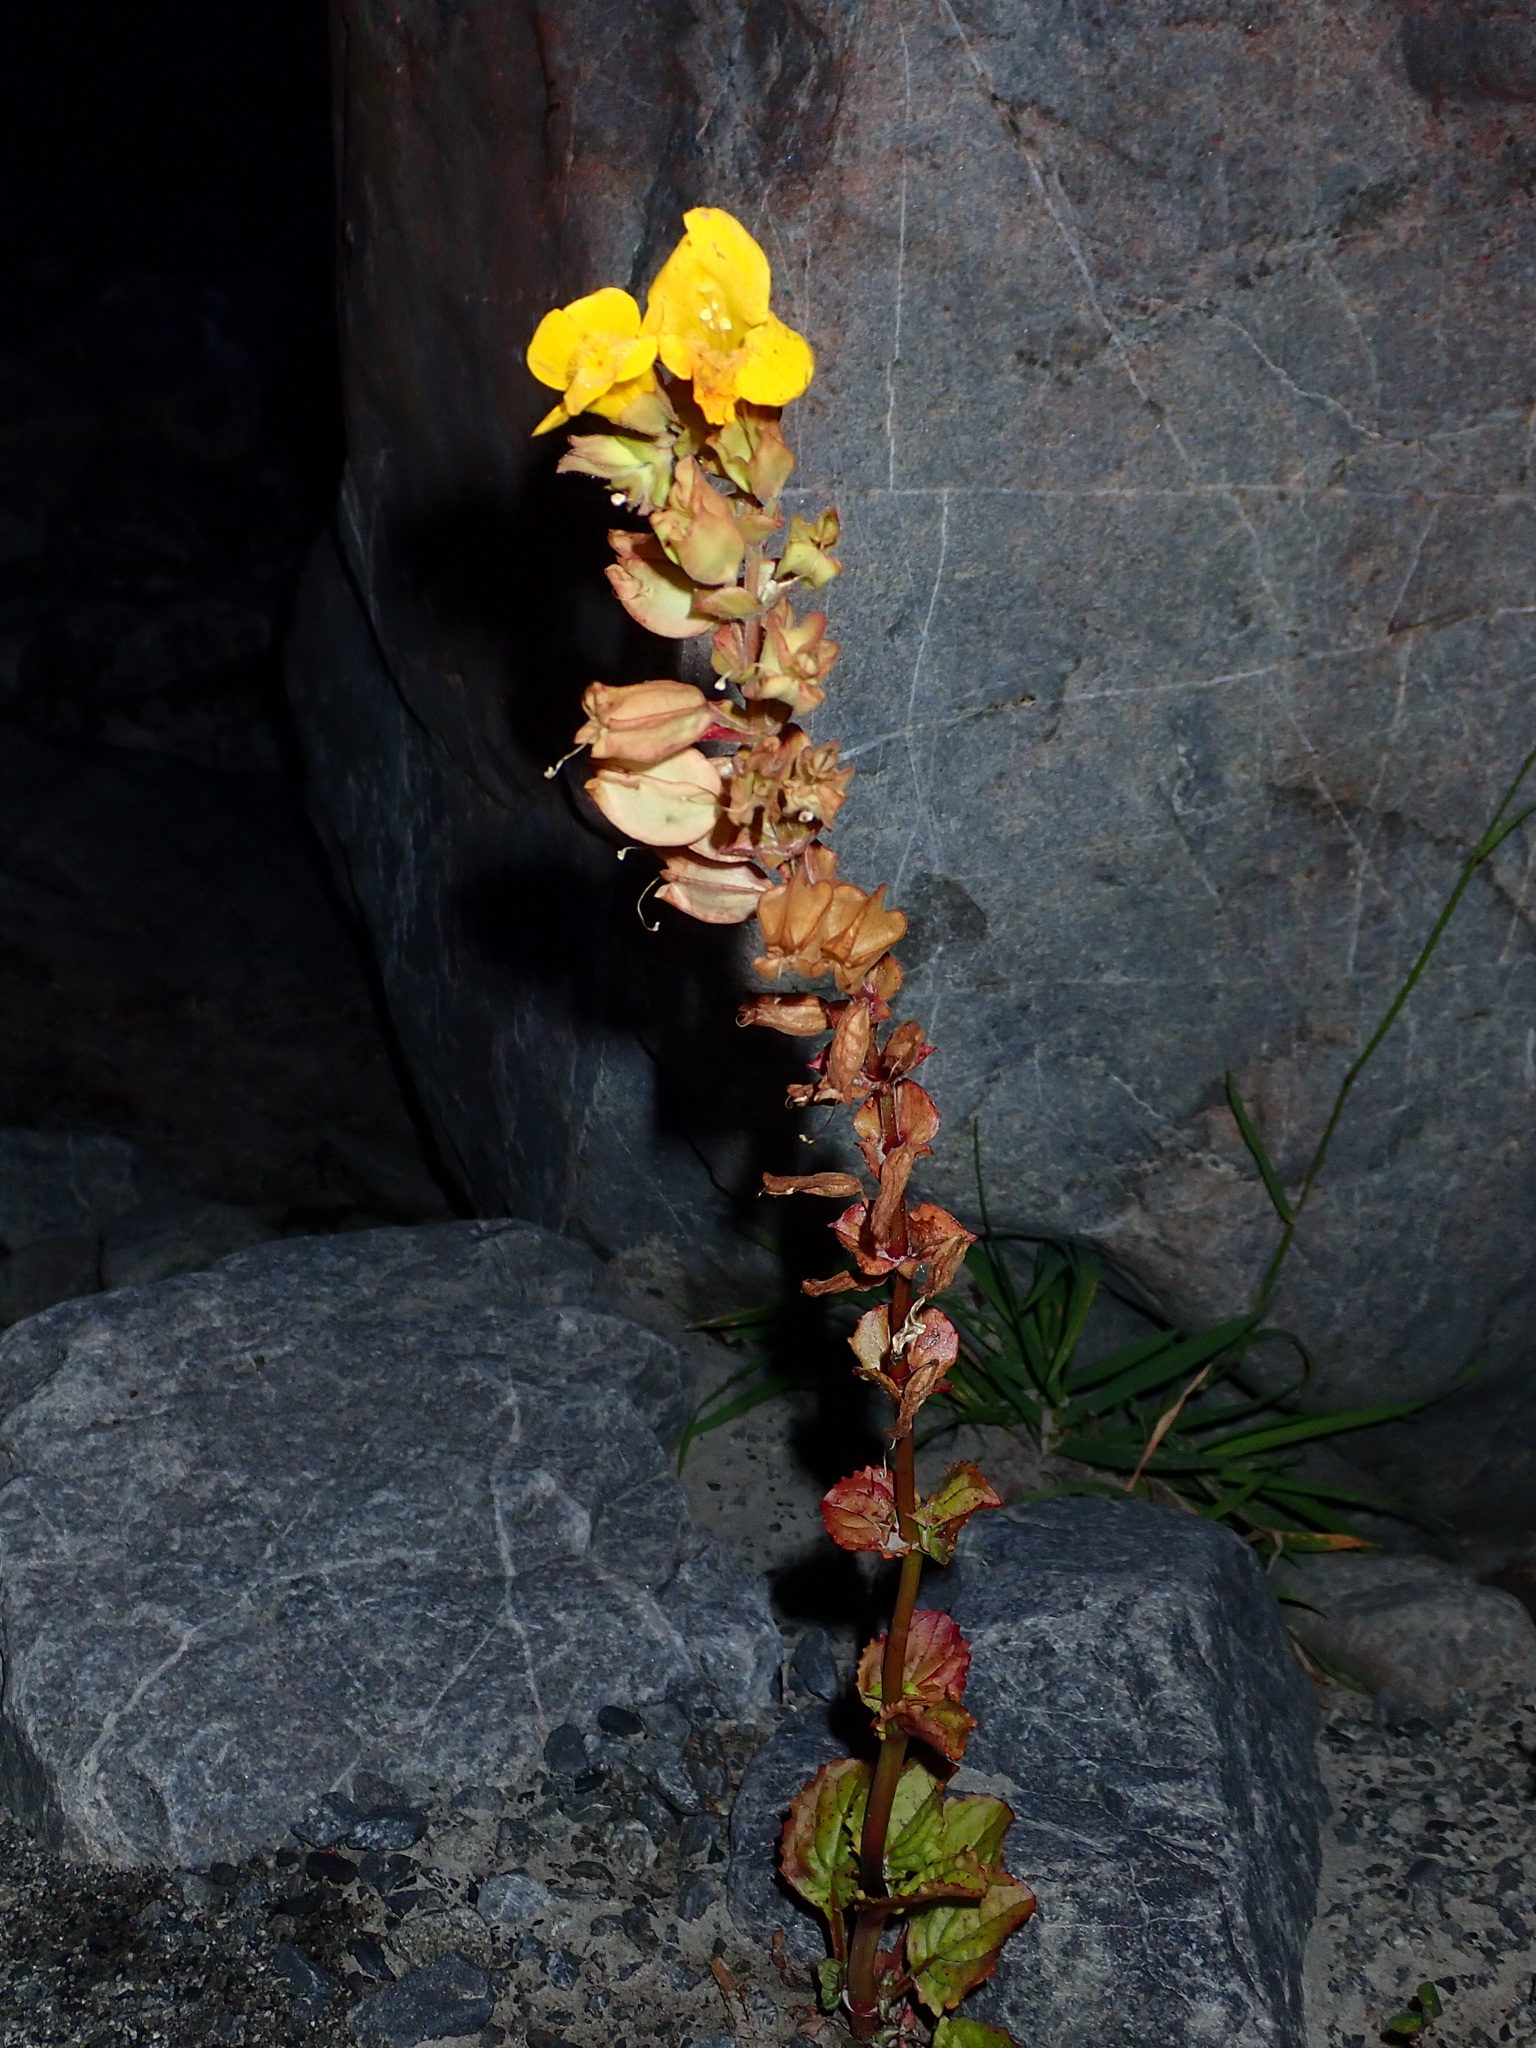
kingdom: Plantae
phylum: Tracheophyta
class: Magnoliopsida
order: Lamiales
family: Phrymaceae
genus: Erythranthe
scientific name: Erythranthe guttata
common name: Monkeyflower
